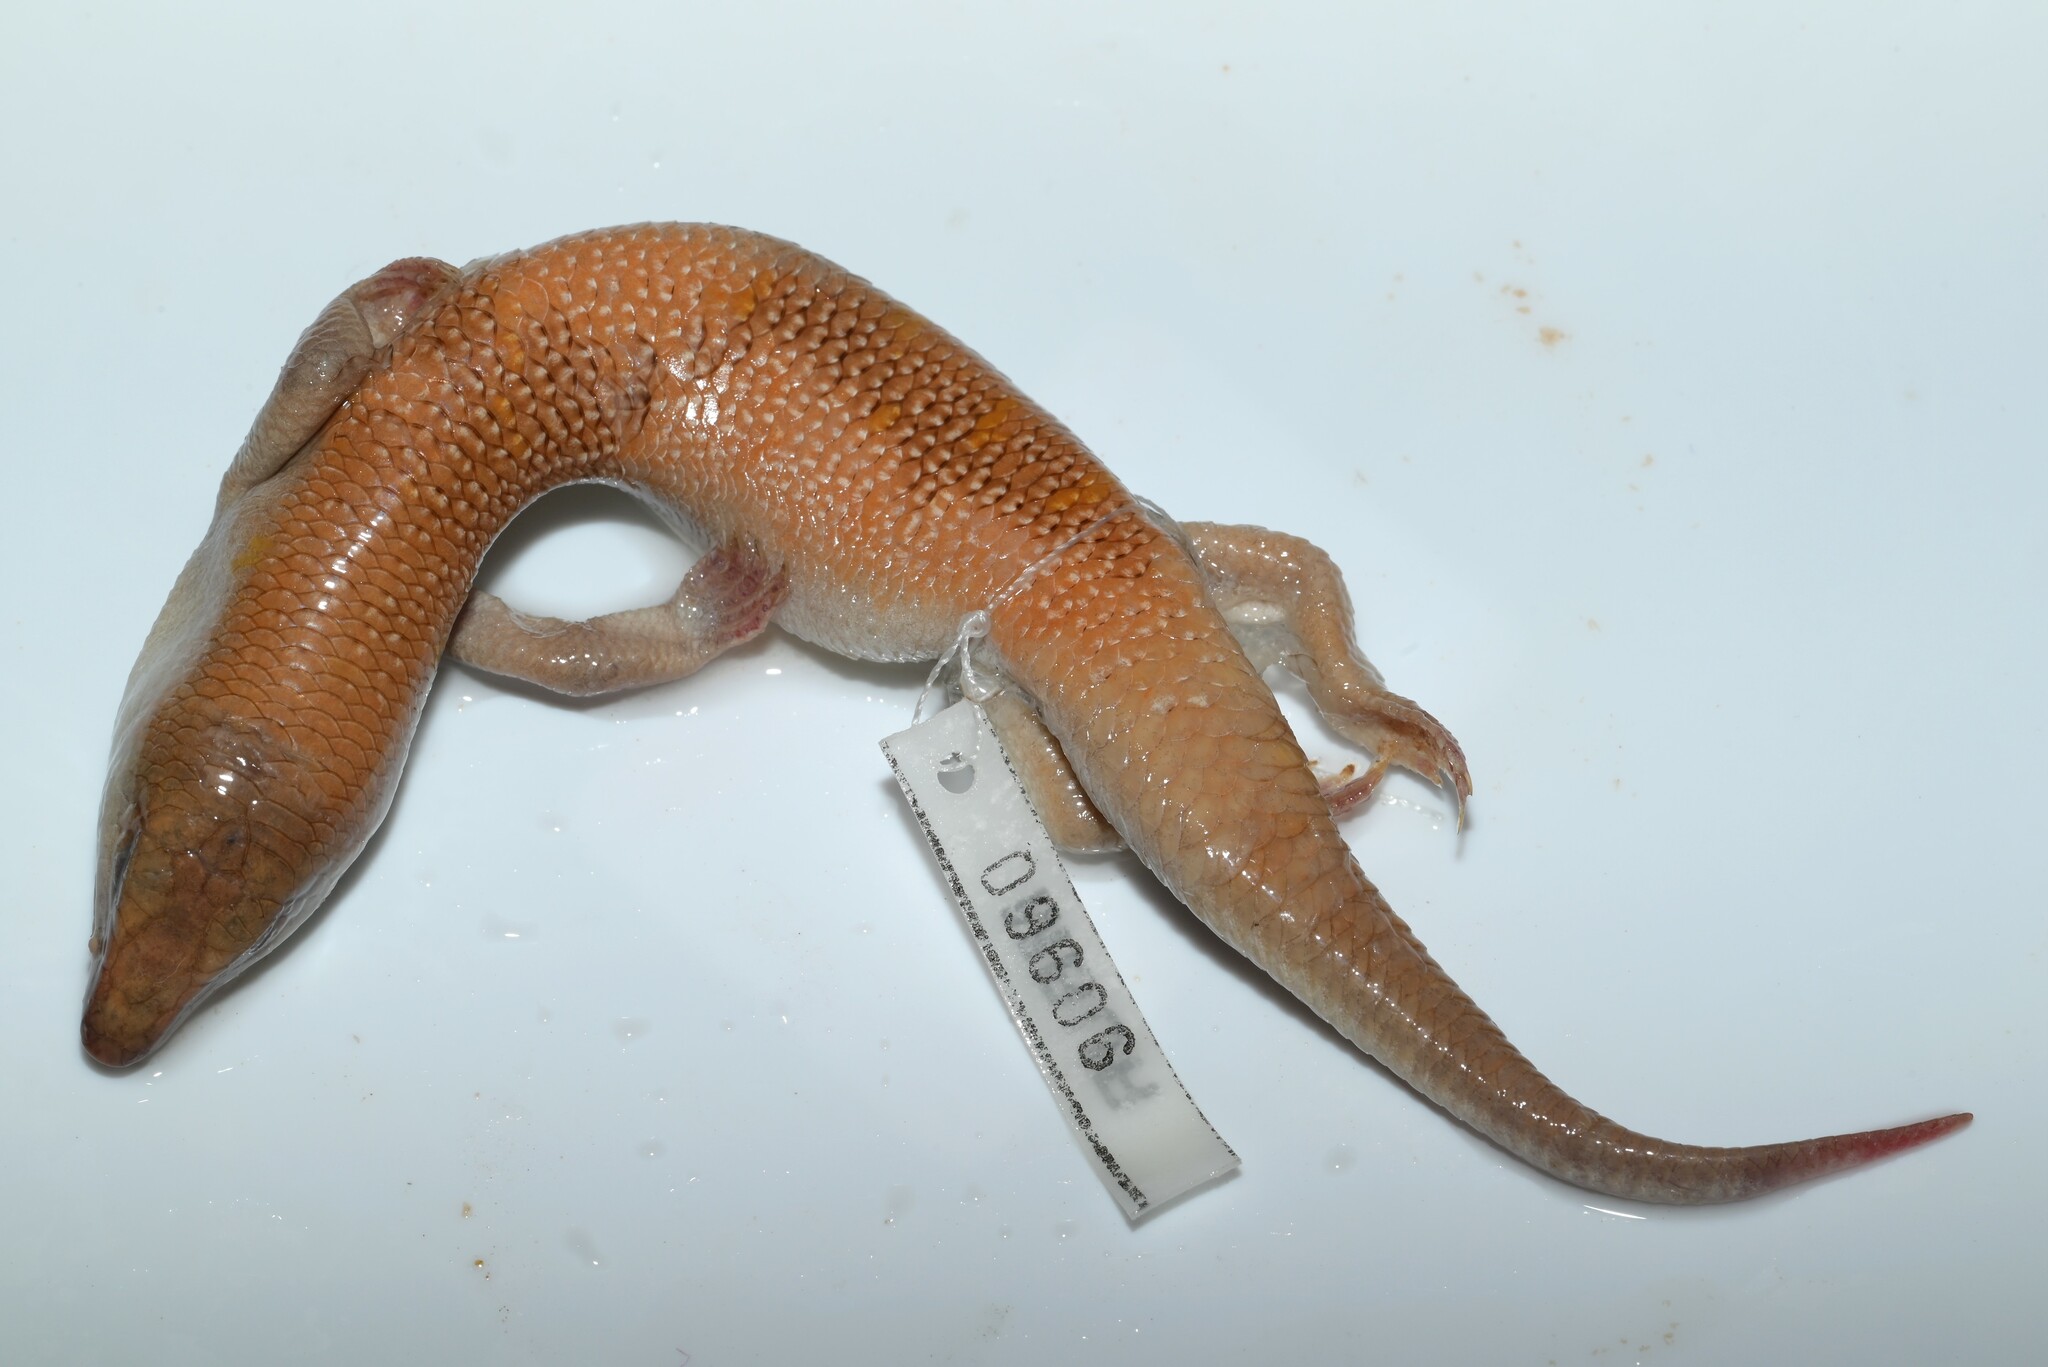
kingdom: Animalia
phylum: Chordata
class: Squamata
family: Scincidae
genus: Scincus
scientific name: Scincus conirostris
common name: Sandfish skink
